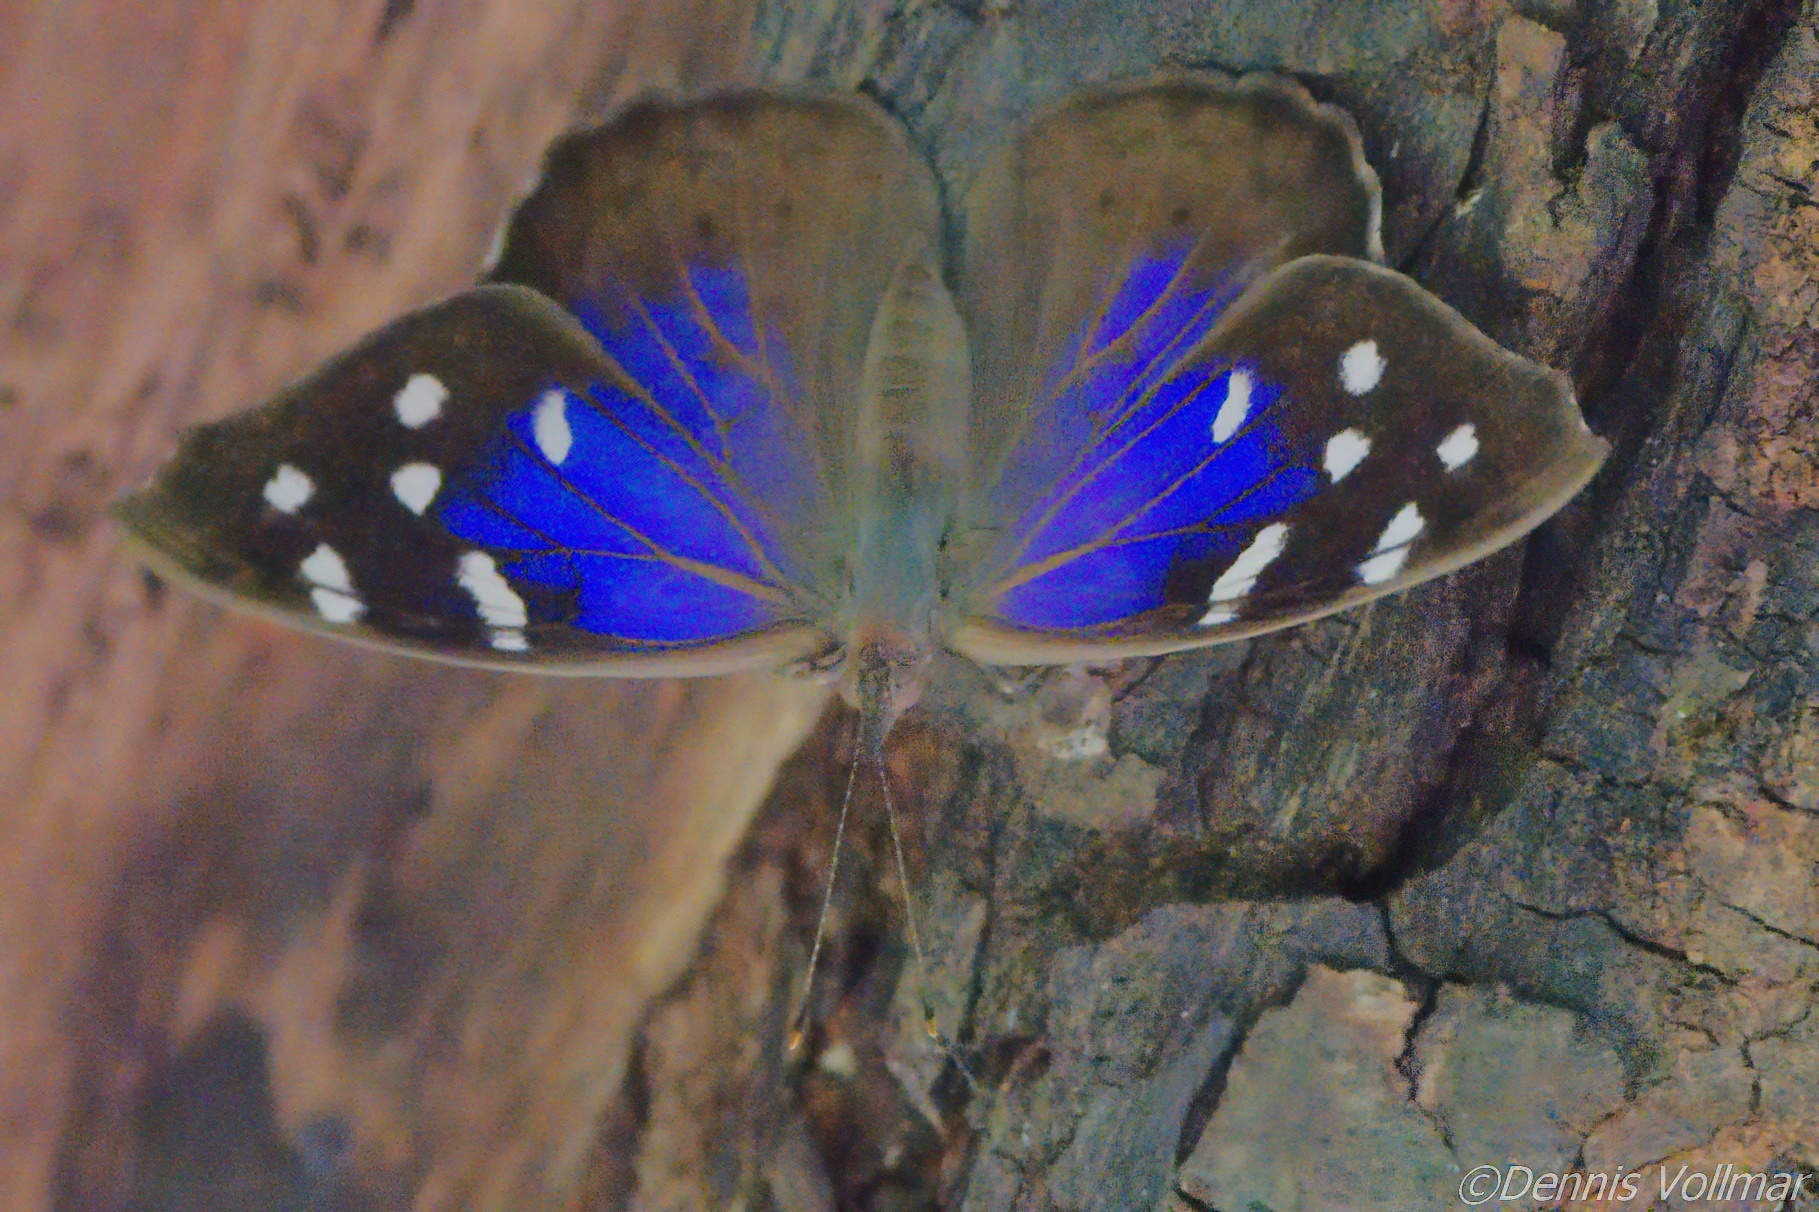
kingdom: Animalia
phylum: Arthropoda
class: Insecta
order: Lepidoptera
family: Nymphalidae
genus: Eunica
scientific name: Eunica tatila
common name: Florida purplewing
